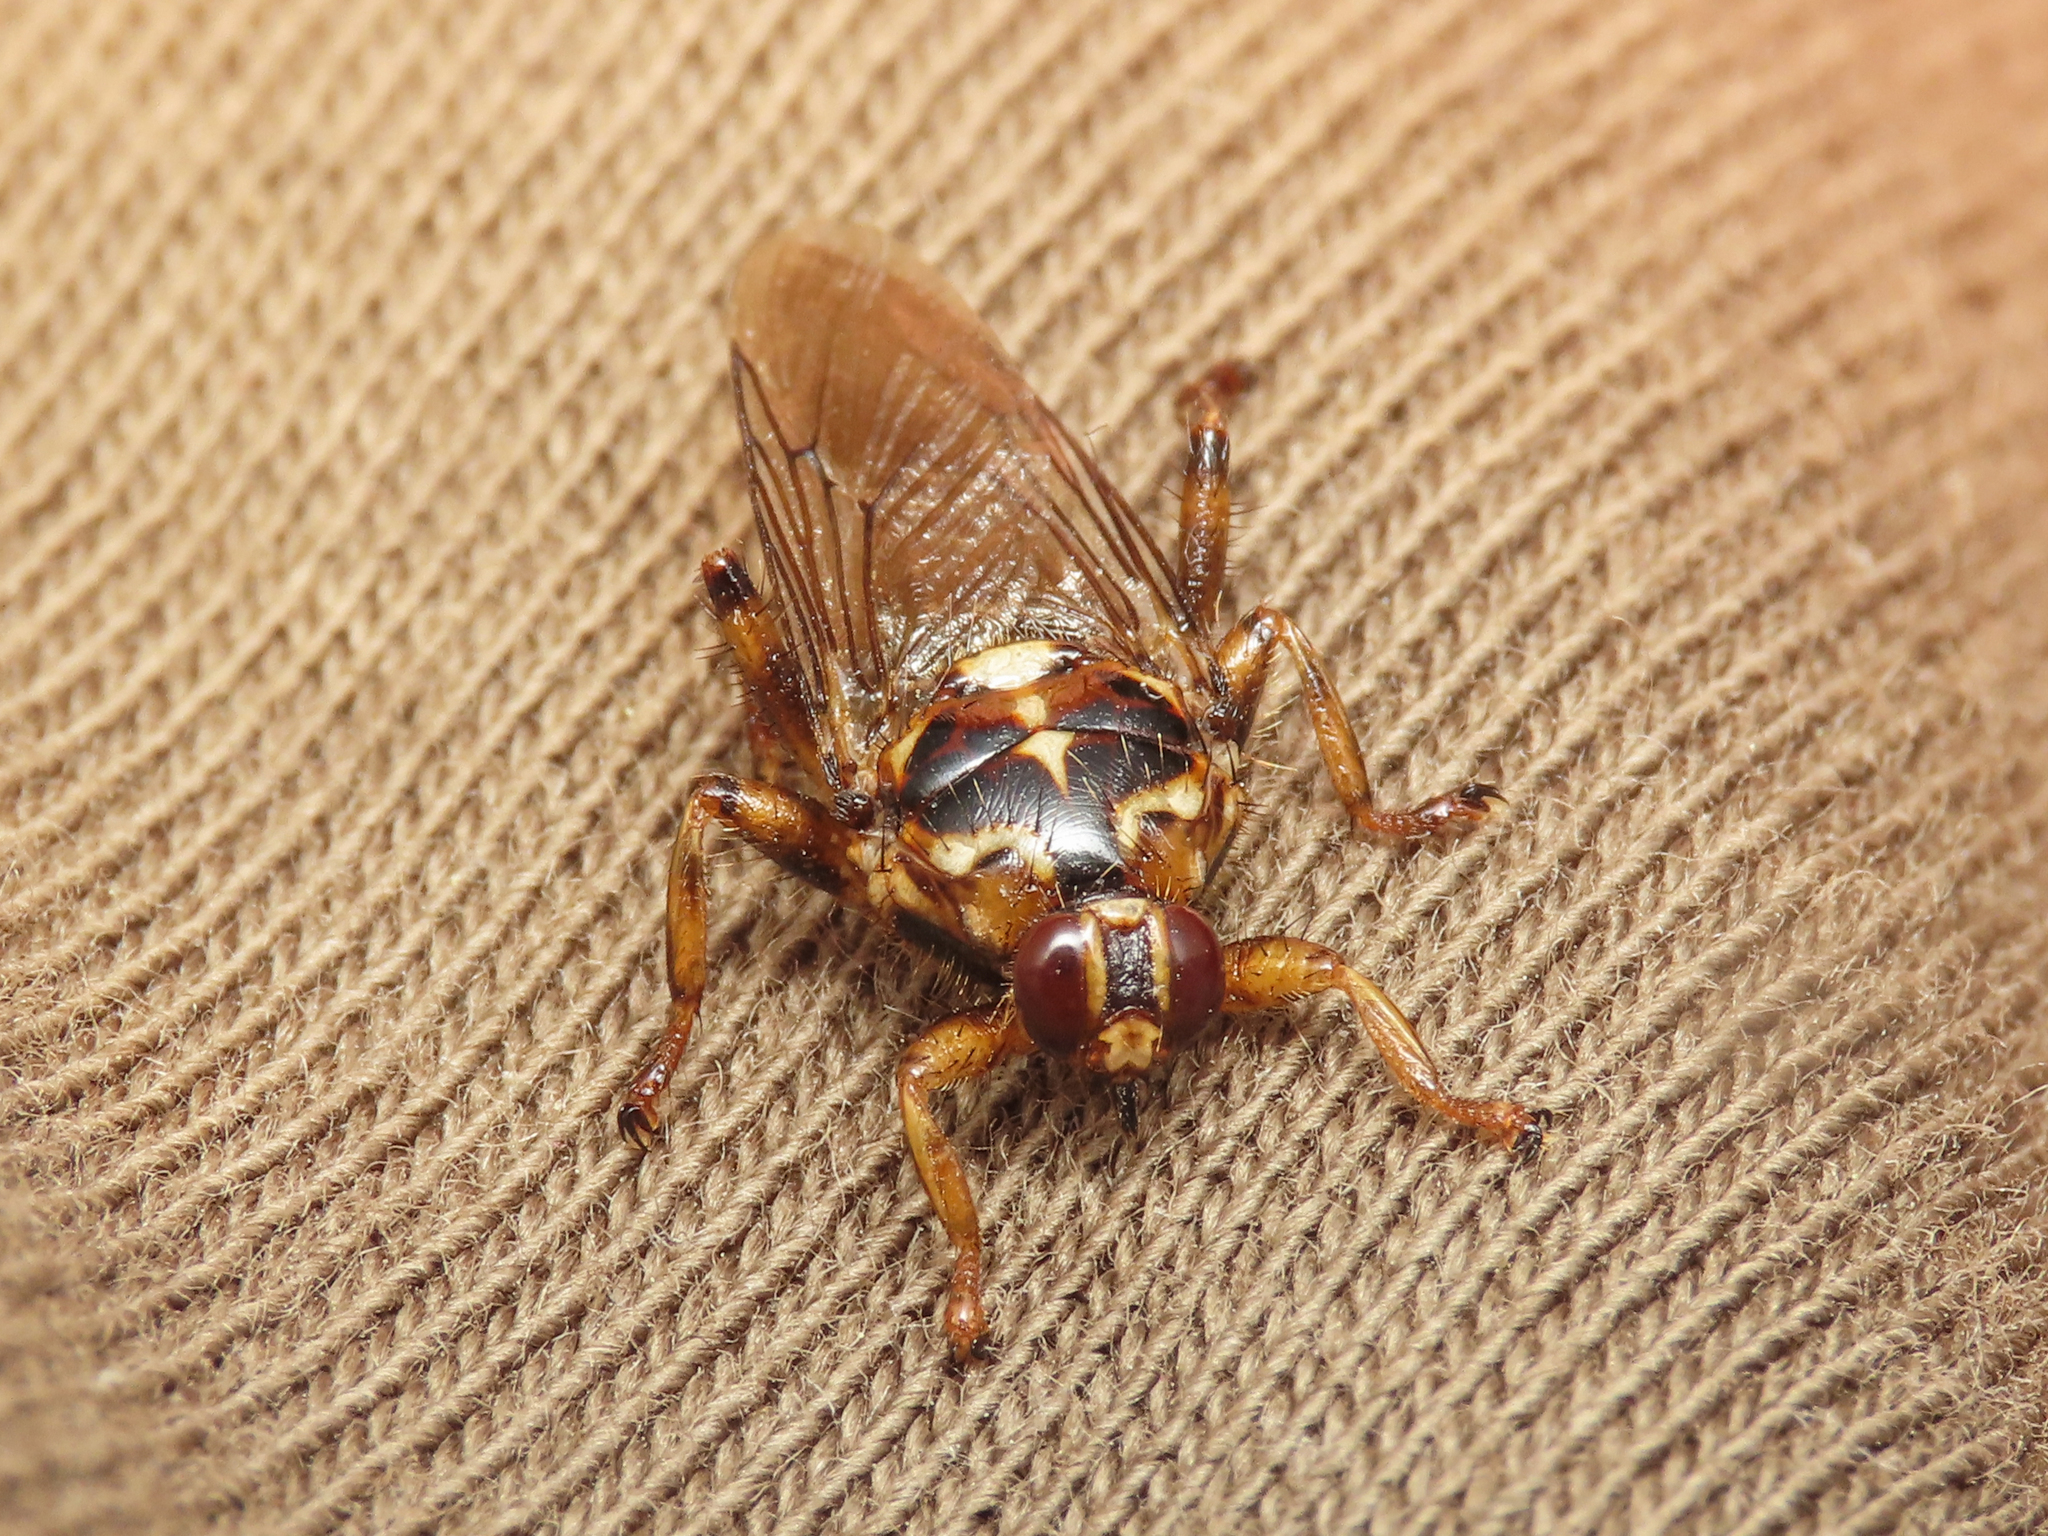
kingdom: Animalia
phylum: Arthropoda
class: Insecta
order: Diptera
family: Hippoboscidae
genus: Hippobosca
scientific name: Hippobosca equina
